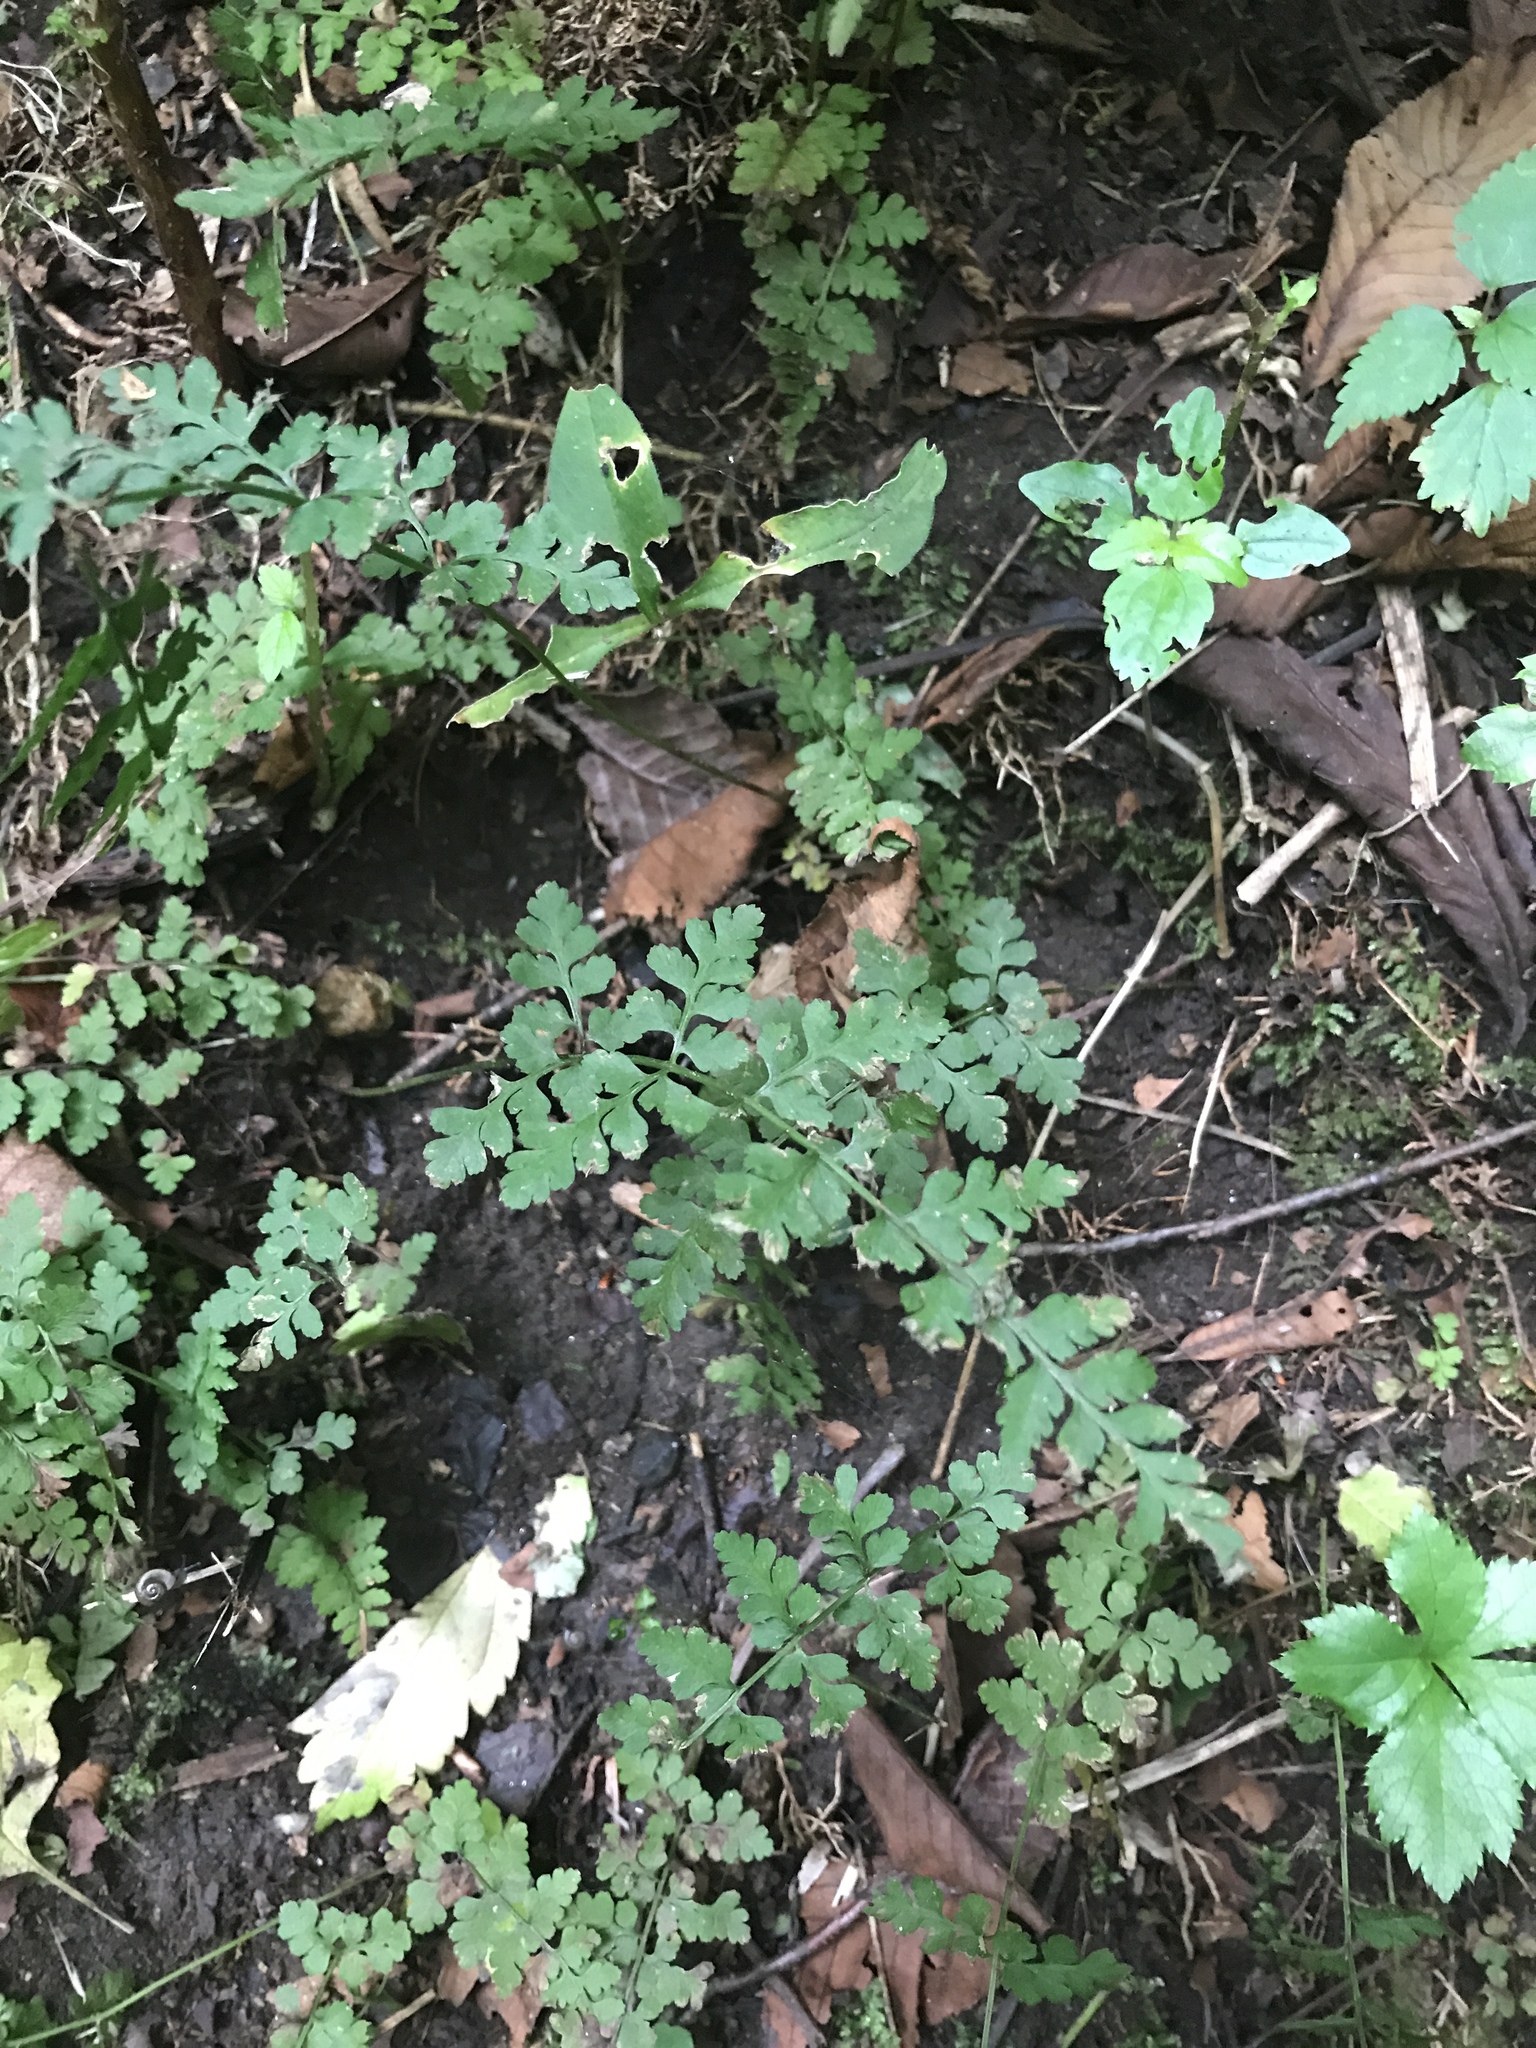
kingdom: Plantae
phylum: Tracheophyta
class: Polypodiopsida
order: Polypodiales
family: Cystopteridaceae
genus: Cystopteris
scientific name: Cystopteris protrusa
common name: Lowland brittle fern
